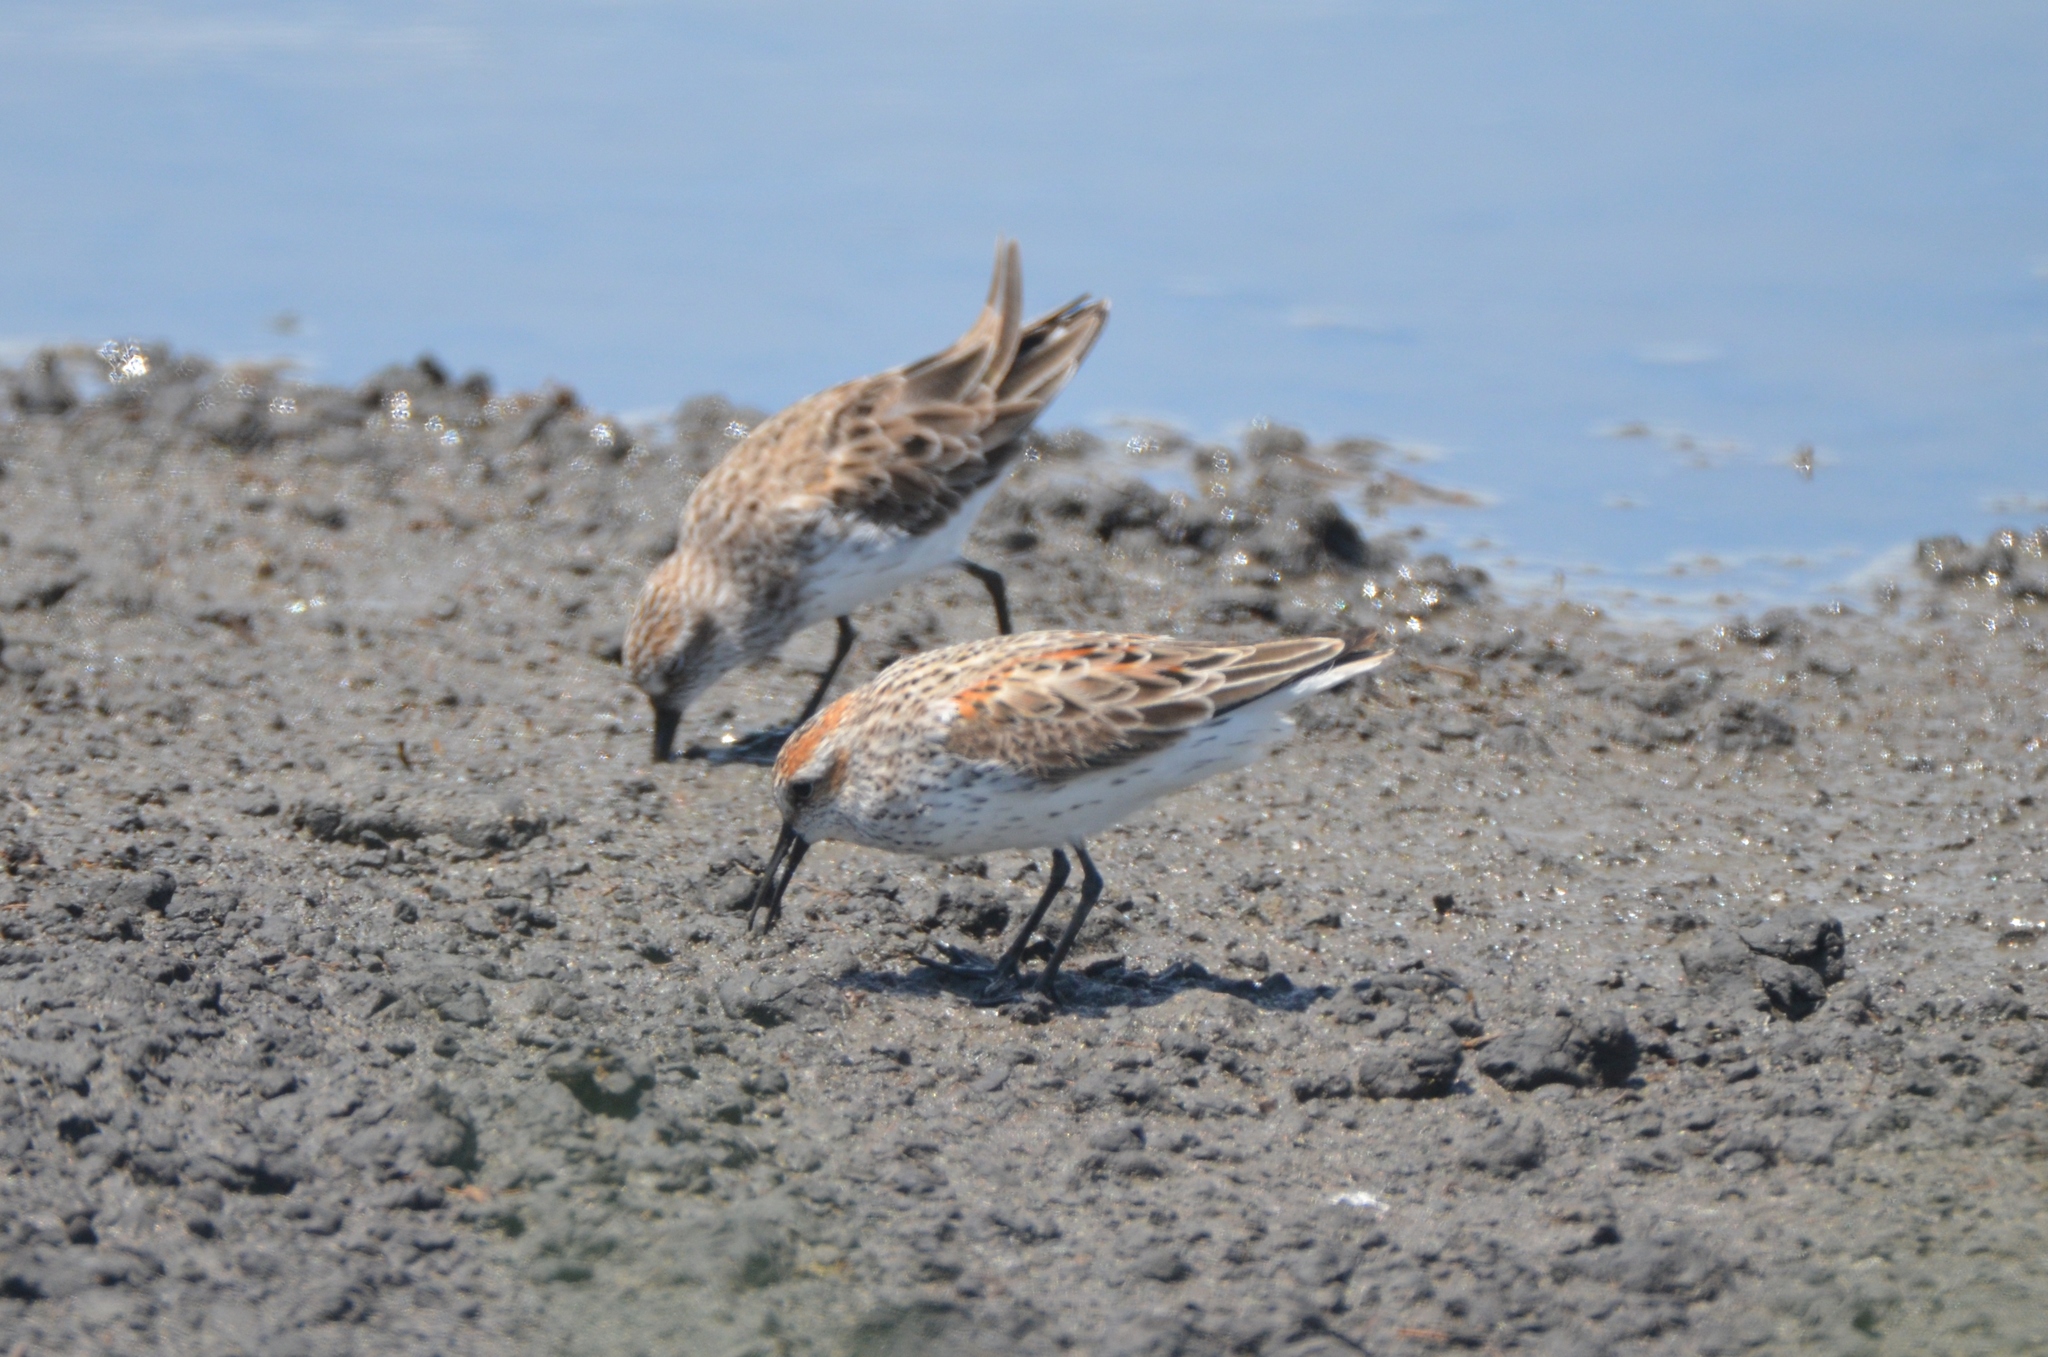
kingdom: Animalia
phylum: Chordata
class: Aves
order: Charadriiformes
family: Scolopacidae
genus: Calidris
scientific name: Calidris mauri
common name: Western sandpiper
